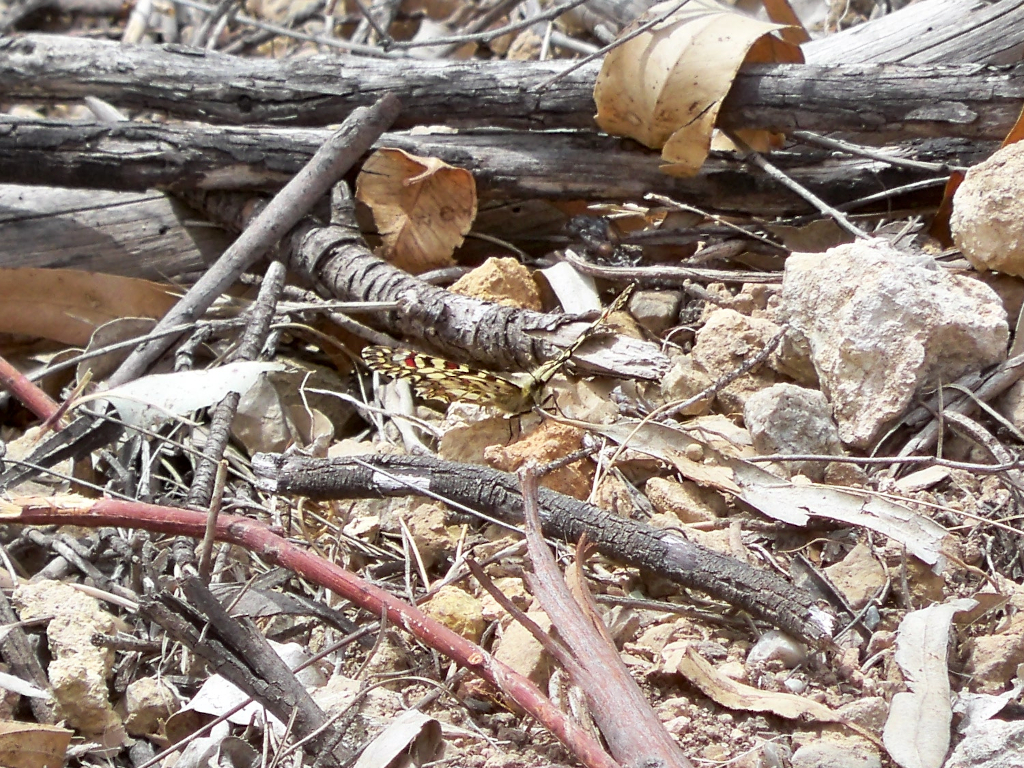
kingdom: Animalia
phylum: Arthropoda
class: Insecta
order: Lepidoptera
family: Papilionidae
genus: Zerynthia
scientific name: Zerynthia rumina
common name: Spanish festoon
